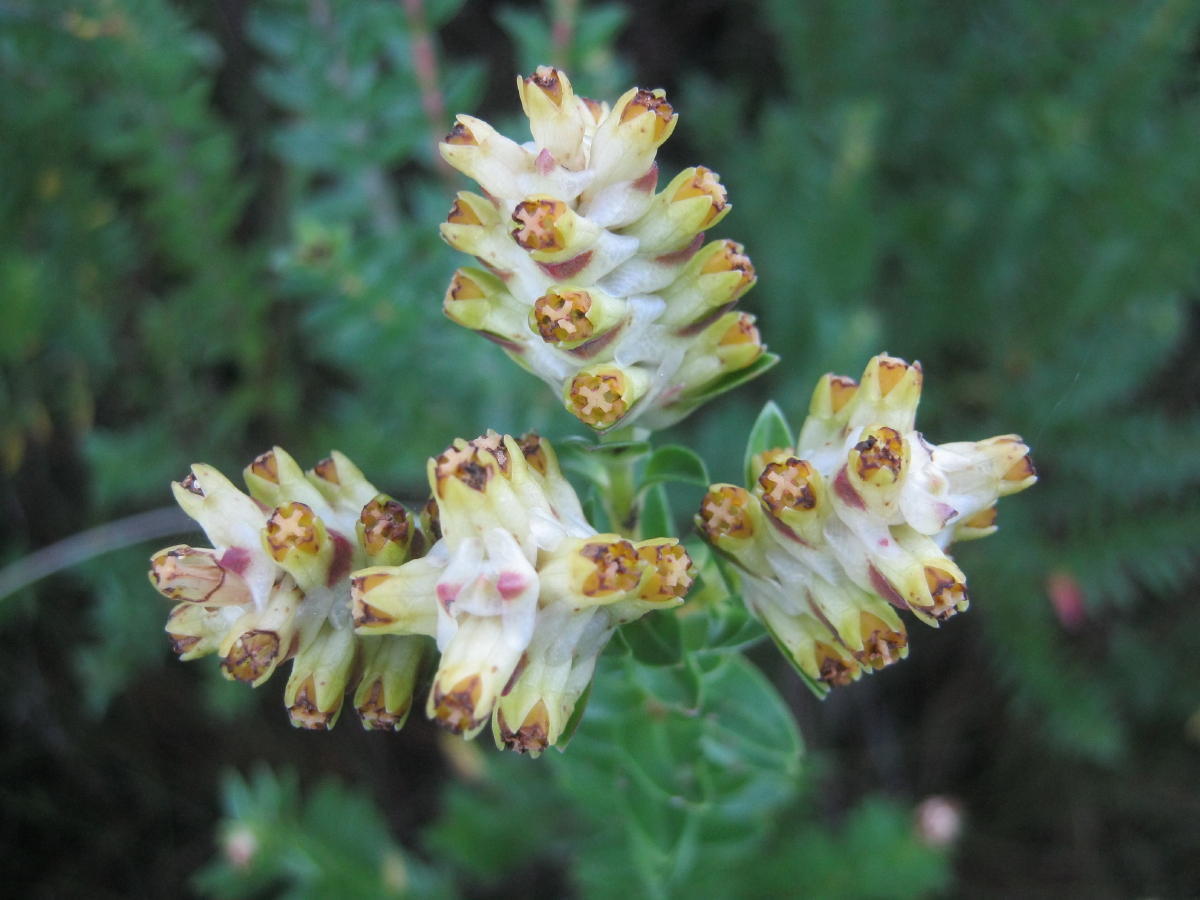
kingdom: Plantae
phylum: Tracheophyta
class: Magnoliopsida
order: Myrtales
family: Penaeaceae
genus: Penaea
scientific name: Penaea cneorum
